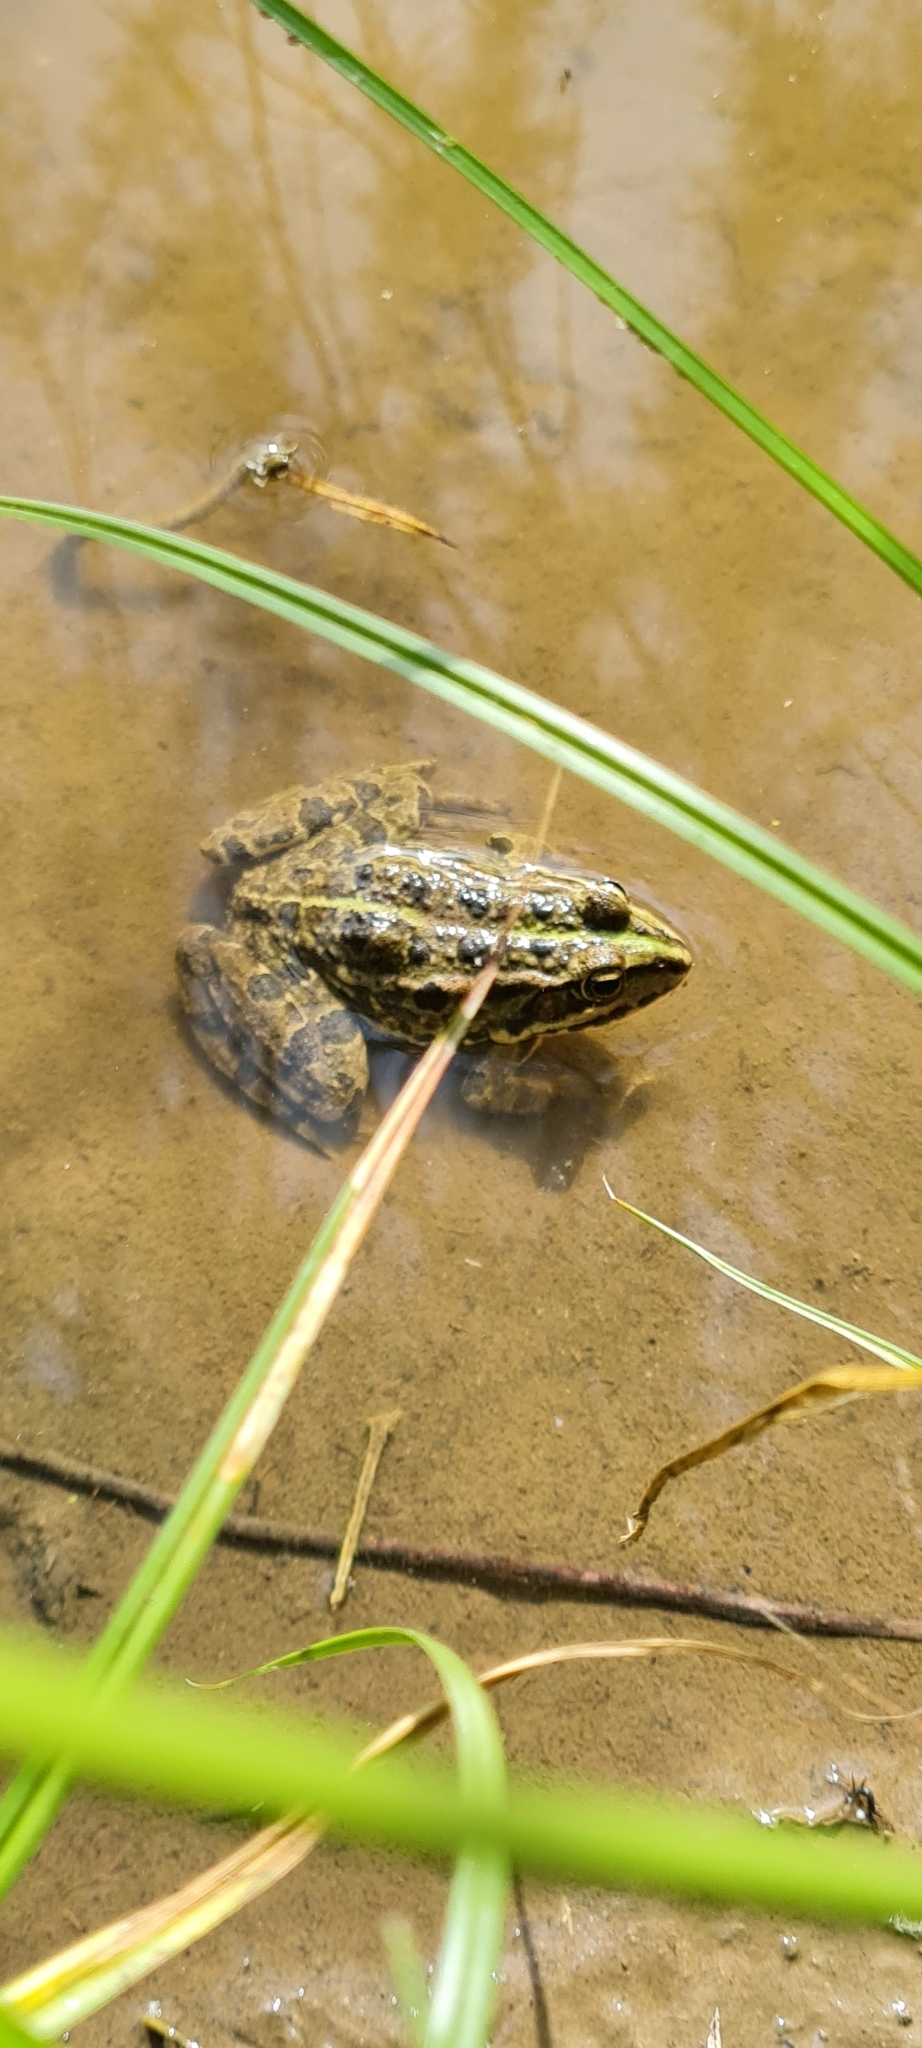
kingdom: Animalia
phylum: Chordata
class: Amphibia
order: Anura
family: Ranidae
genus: Pelophylax
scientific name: Pelophylax perezi
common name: Perez's frog
